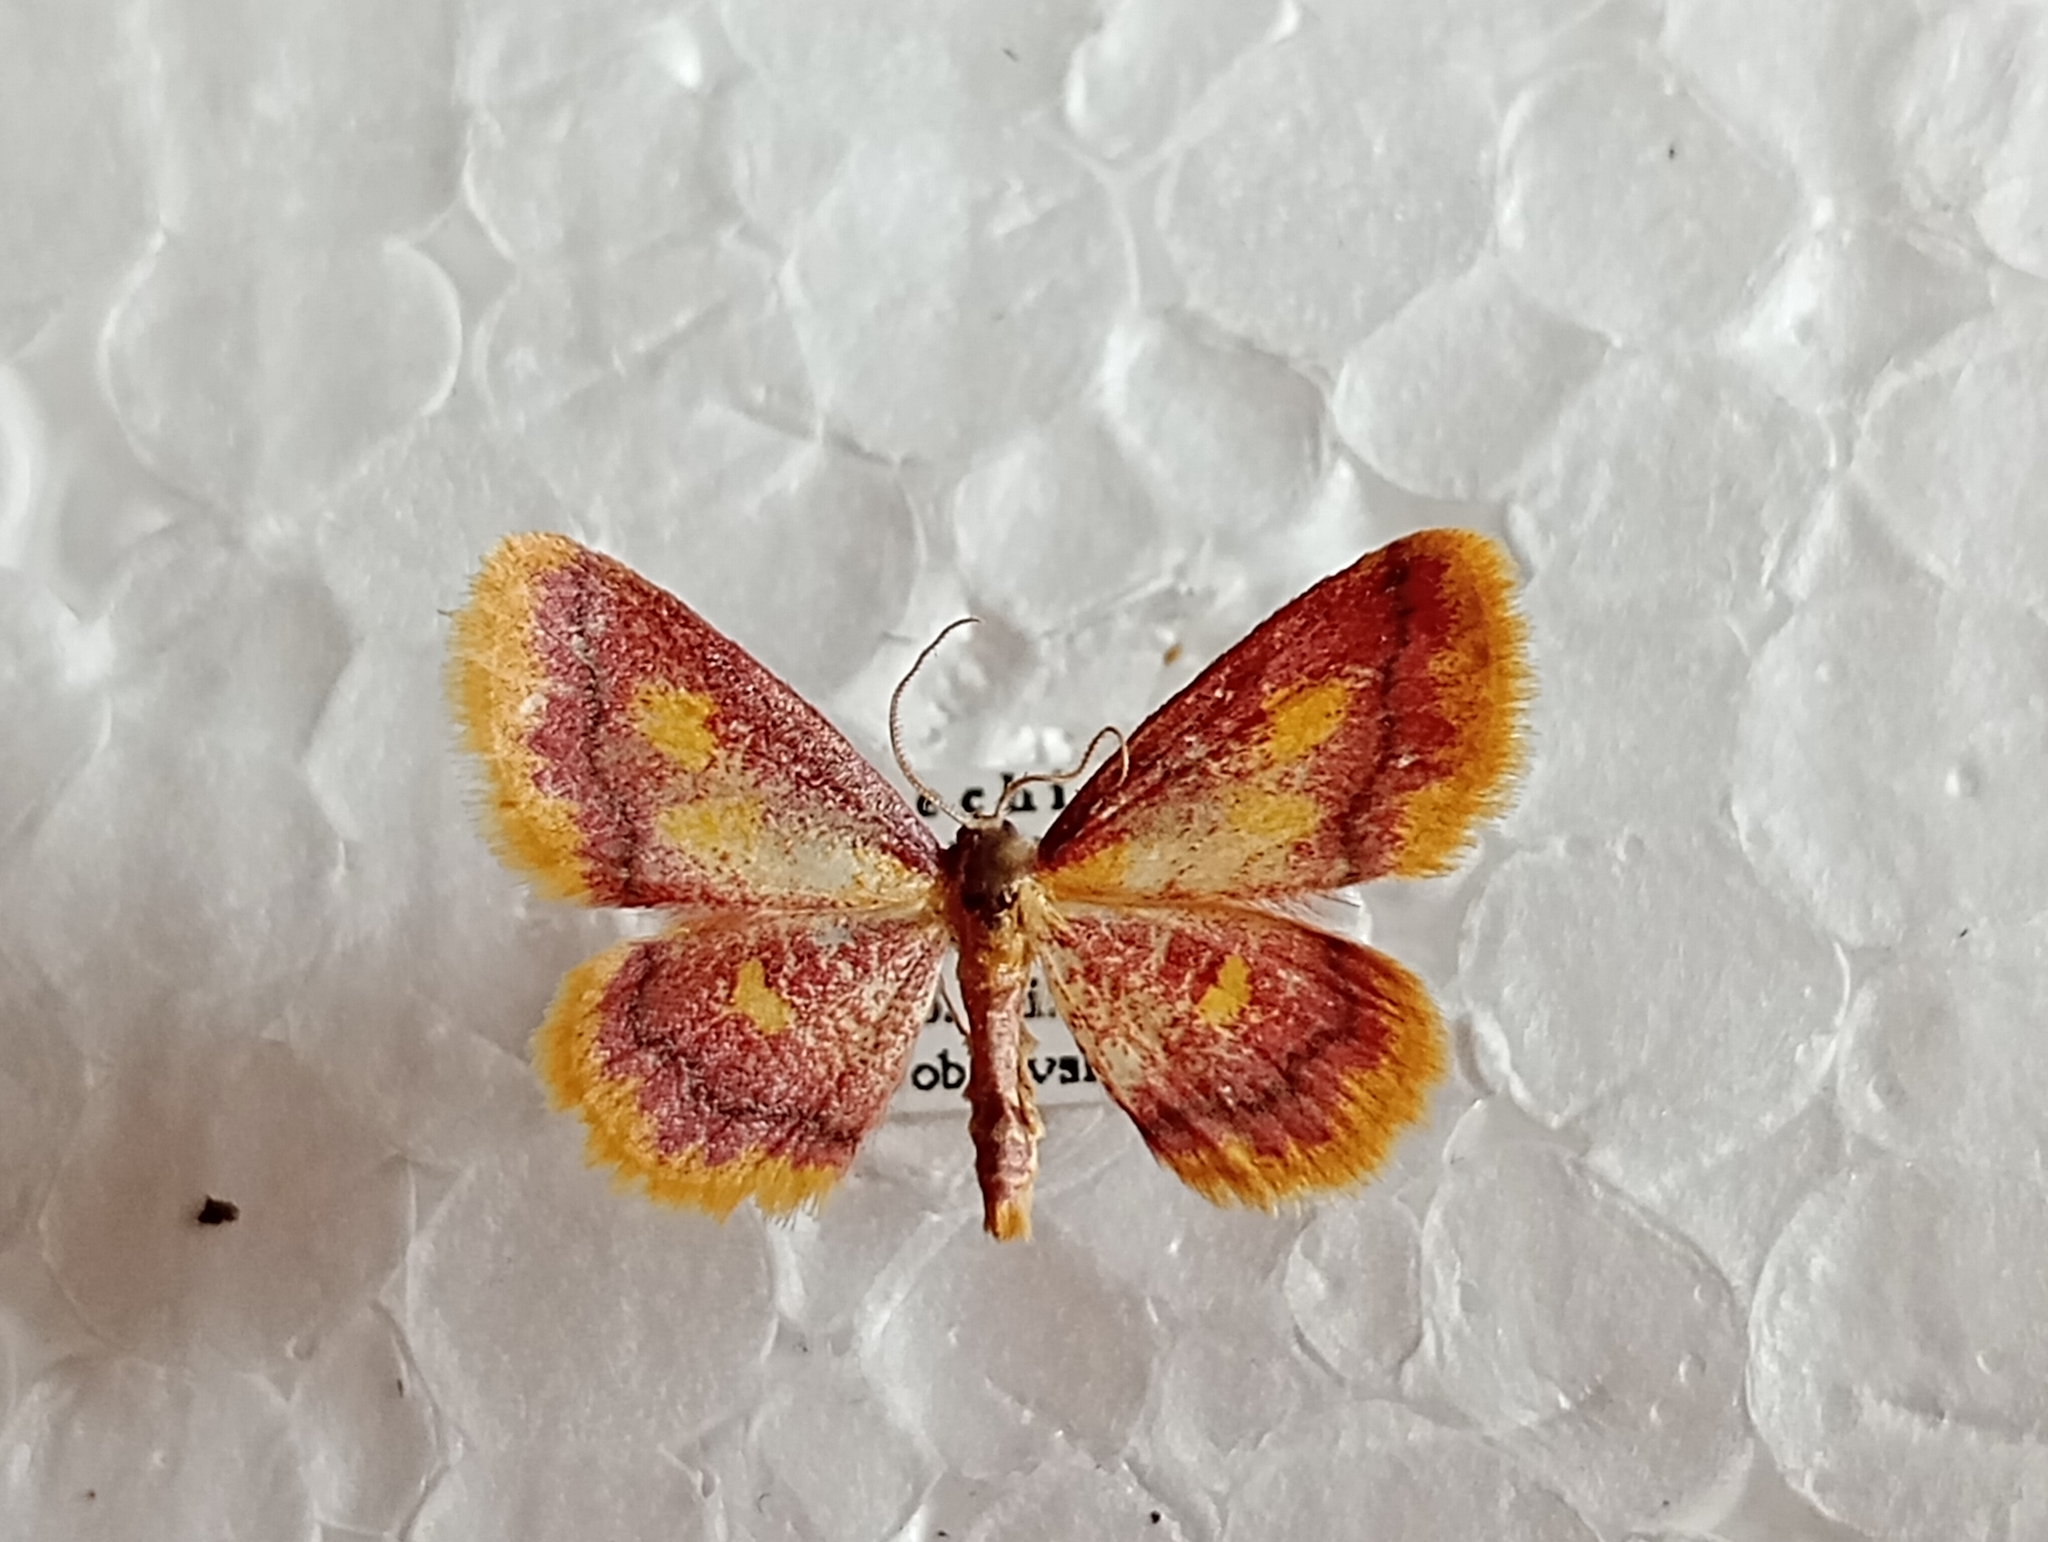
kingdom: Animalia
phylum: Arthropoda
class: Insecta
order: Lepidoptera
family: Geometridae
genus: Idaea
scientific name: Idaea muricata
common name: Purple-bordered gold
